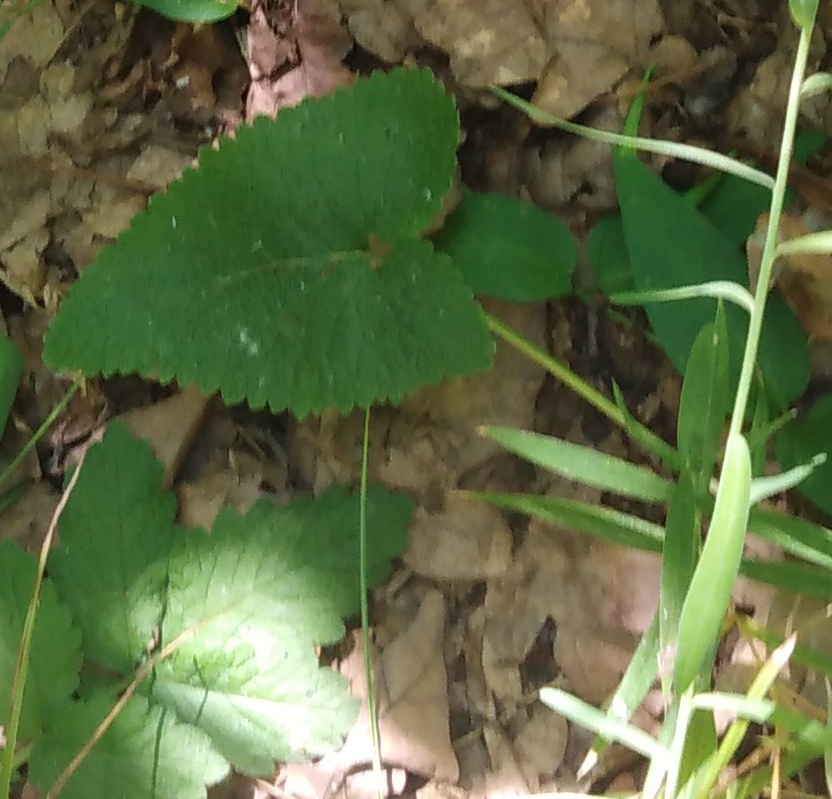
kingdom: Plantae
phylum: Tracheophyta
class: Magnoliopsida
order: Lamiales
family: Lamiaceae
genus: Phlomoides
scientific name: Phlomoides tuberosa
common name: Tuberous jerusalem sage
